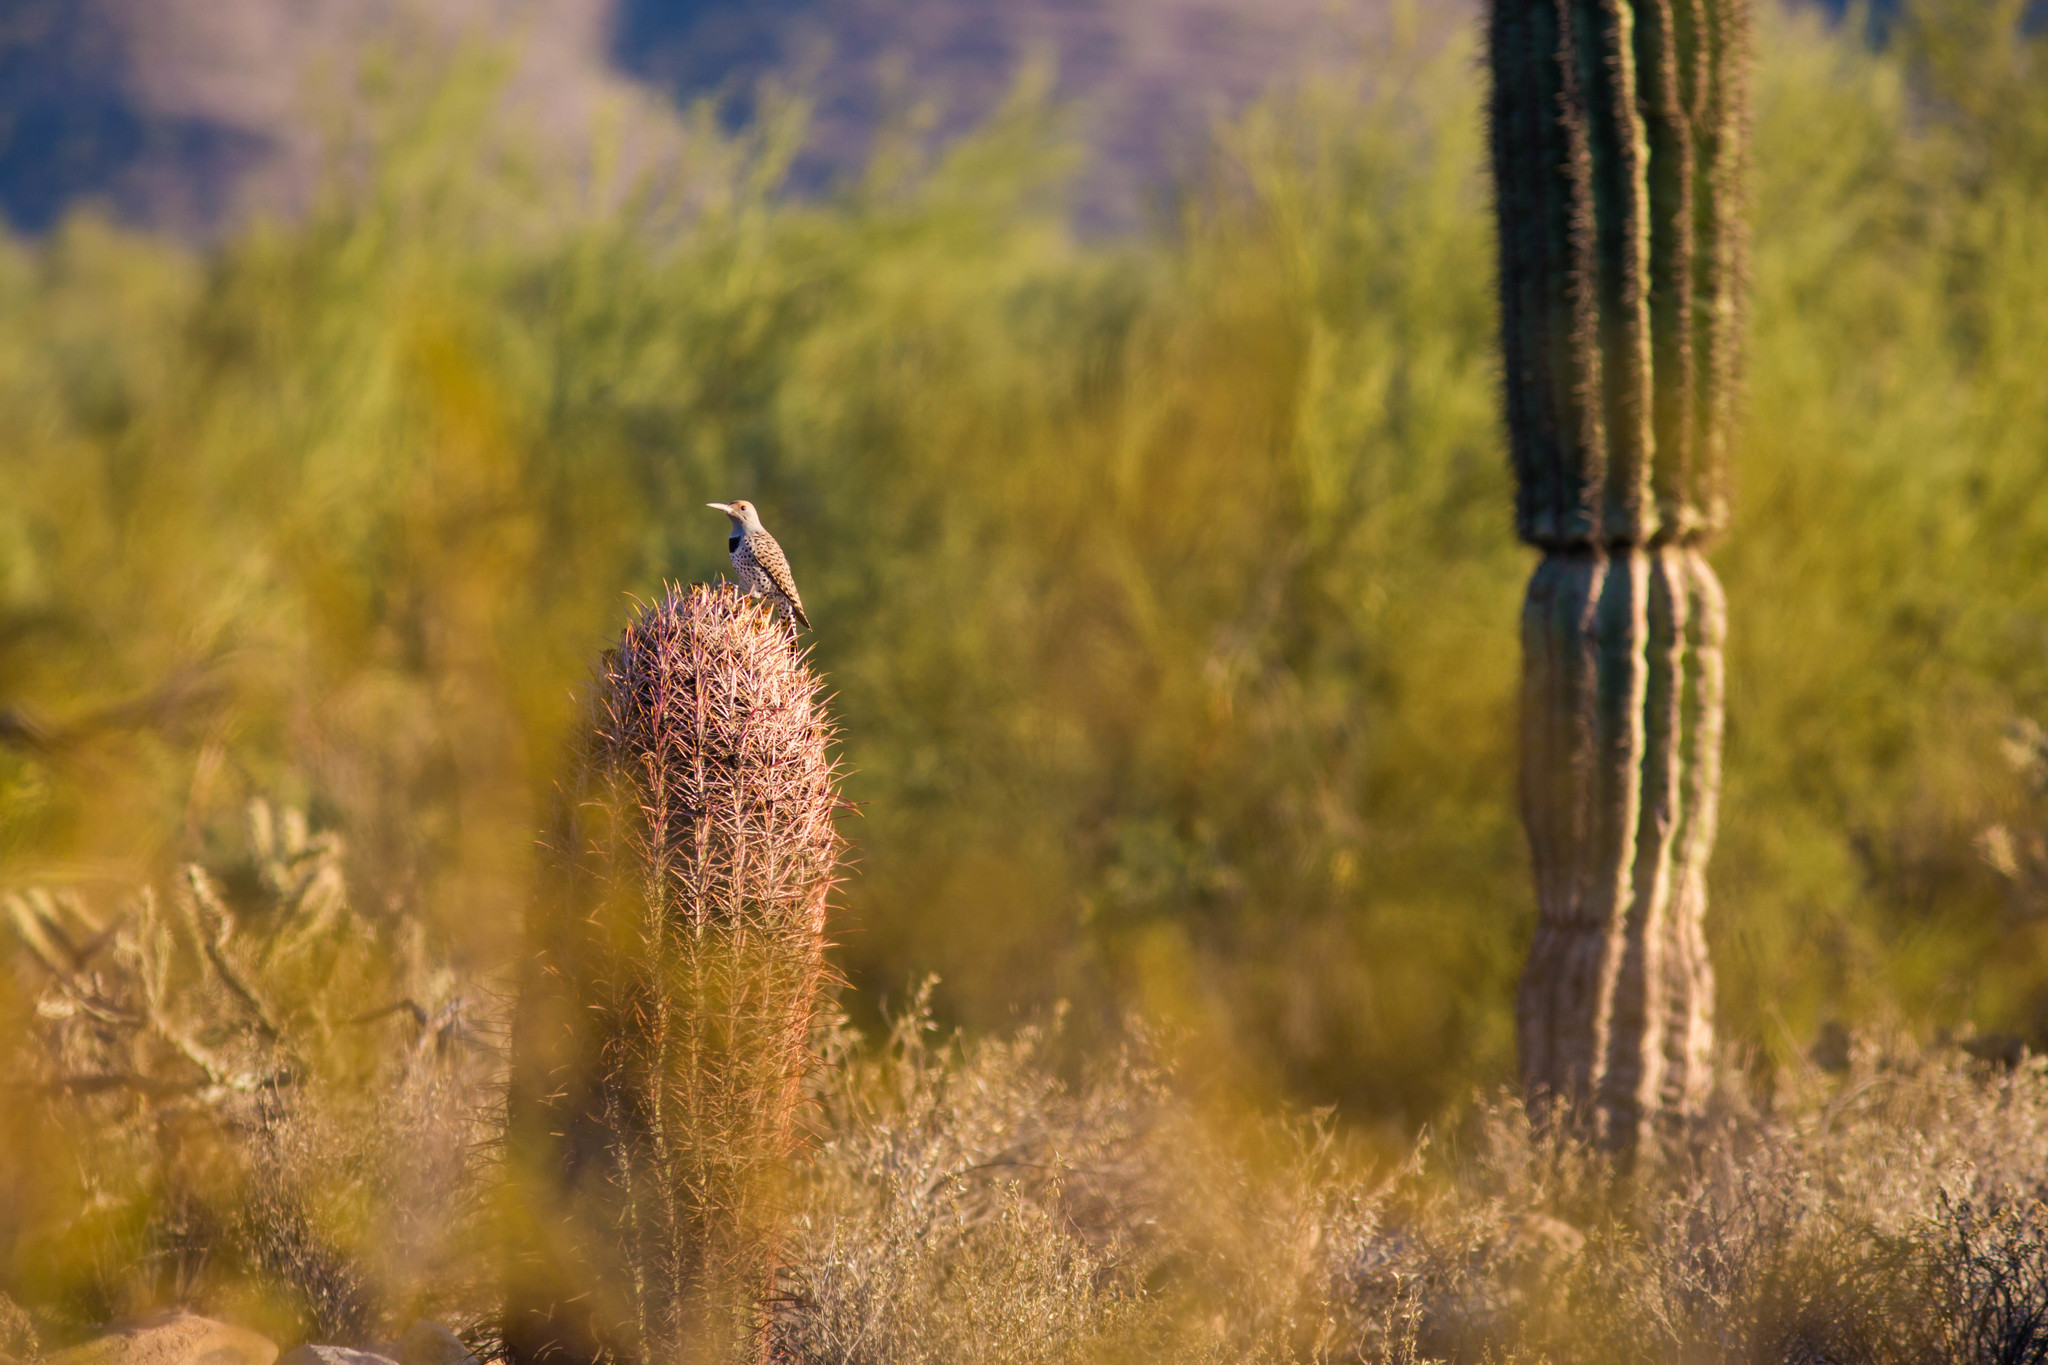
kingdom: Animalia
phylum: Chordata
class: Aves
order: Piciformes
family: Picidae
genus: Colaptes
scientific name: Colaptes chrysoides
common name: Gilded flicker
